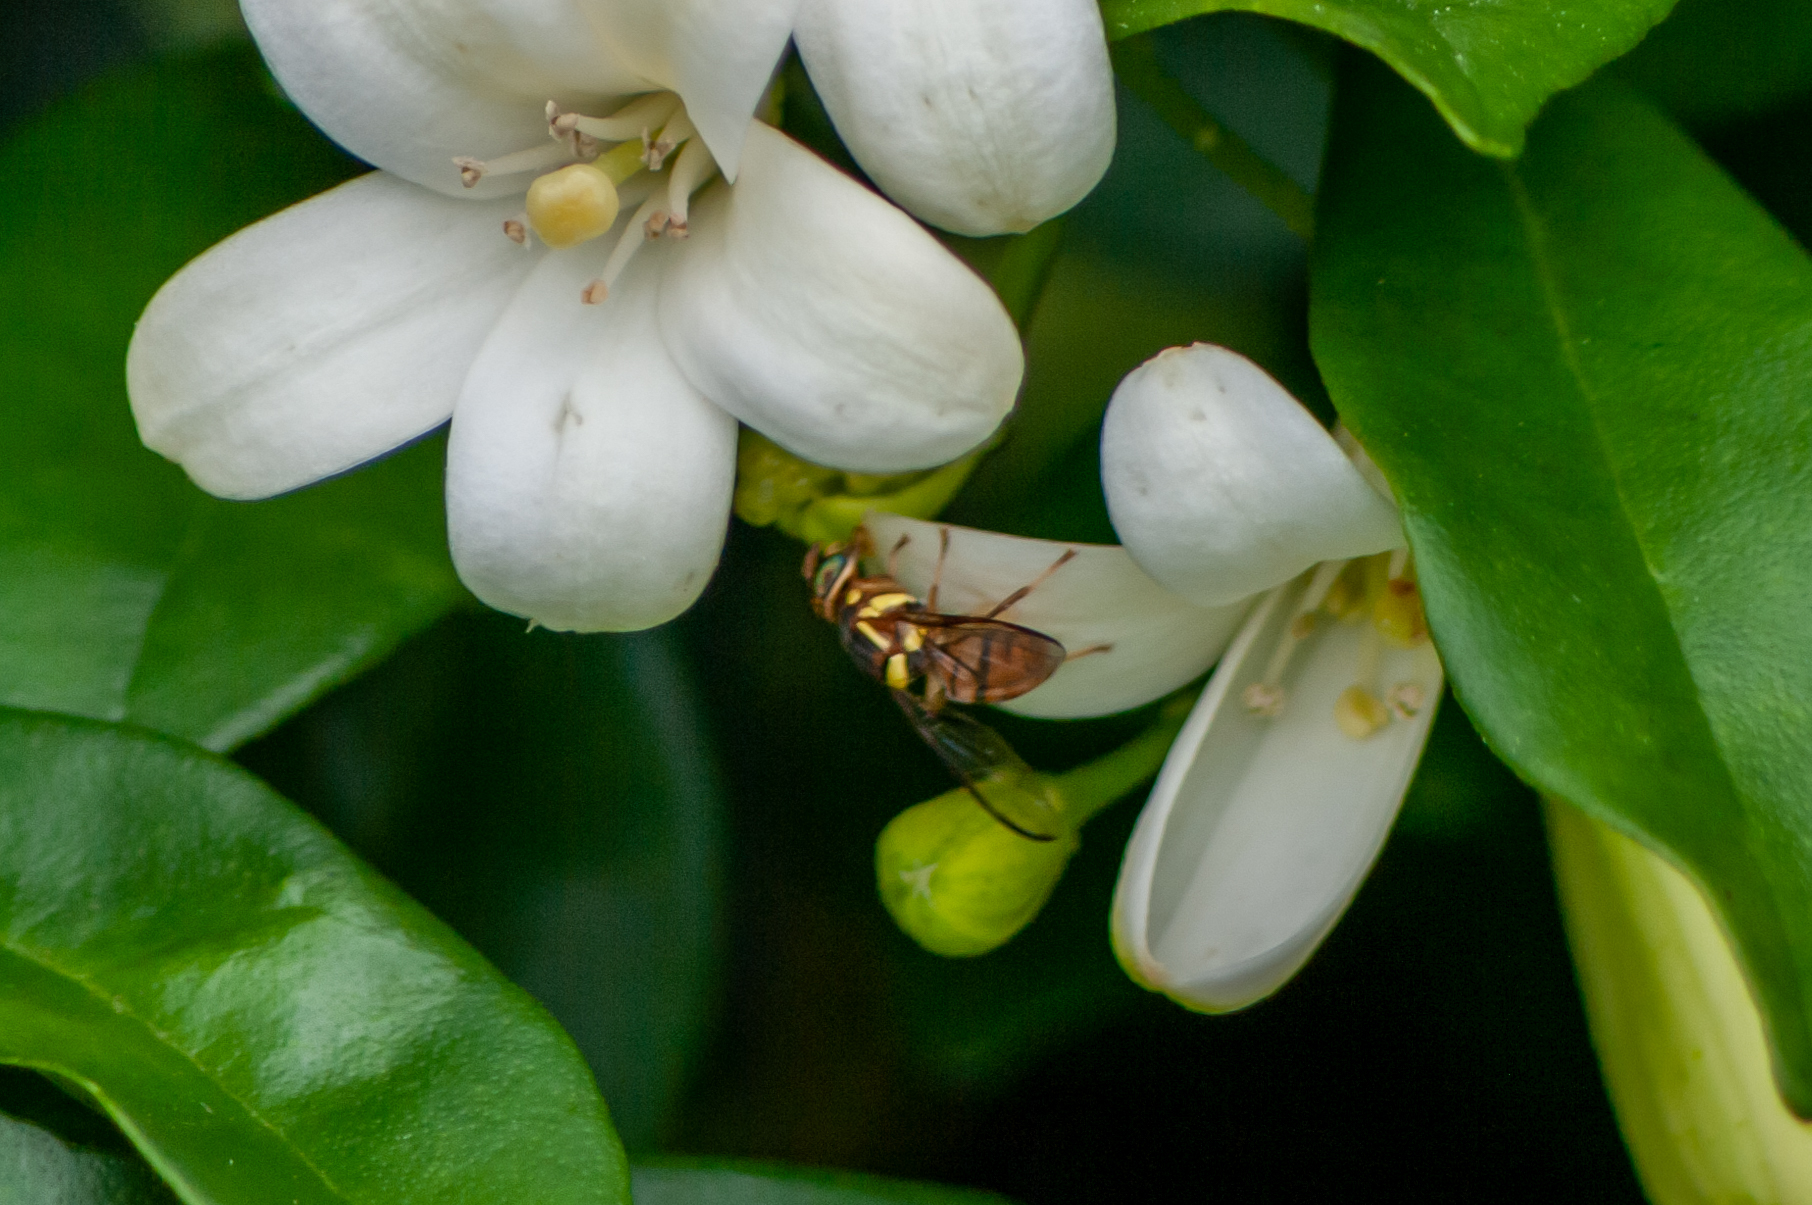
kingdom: Animalia
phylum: Arthropoda
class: Insecta
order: Diptera
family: Tephritidae
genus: Bactrocera
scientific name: Bactrocera dorsalis
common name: Oriental fruit fly
